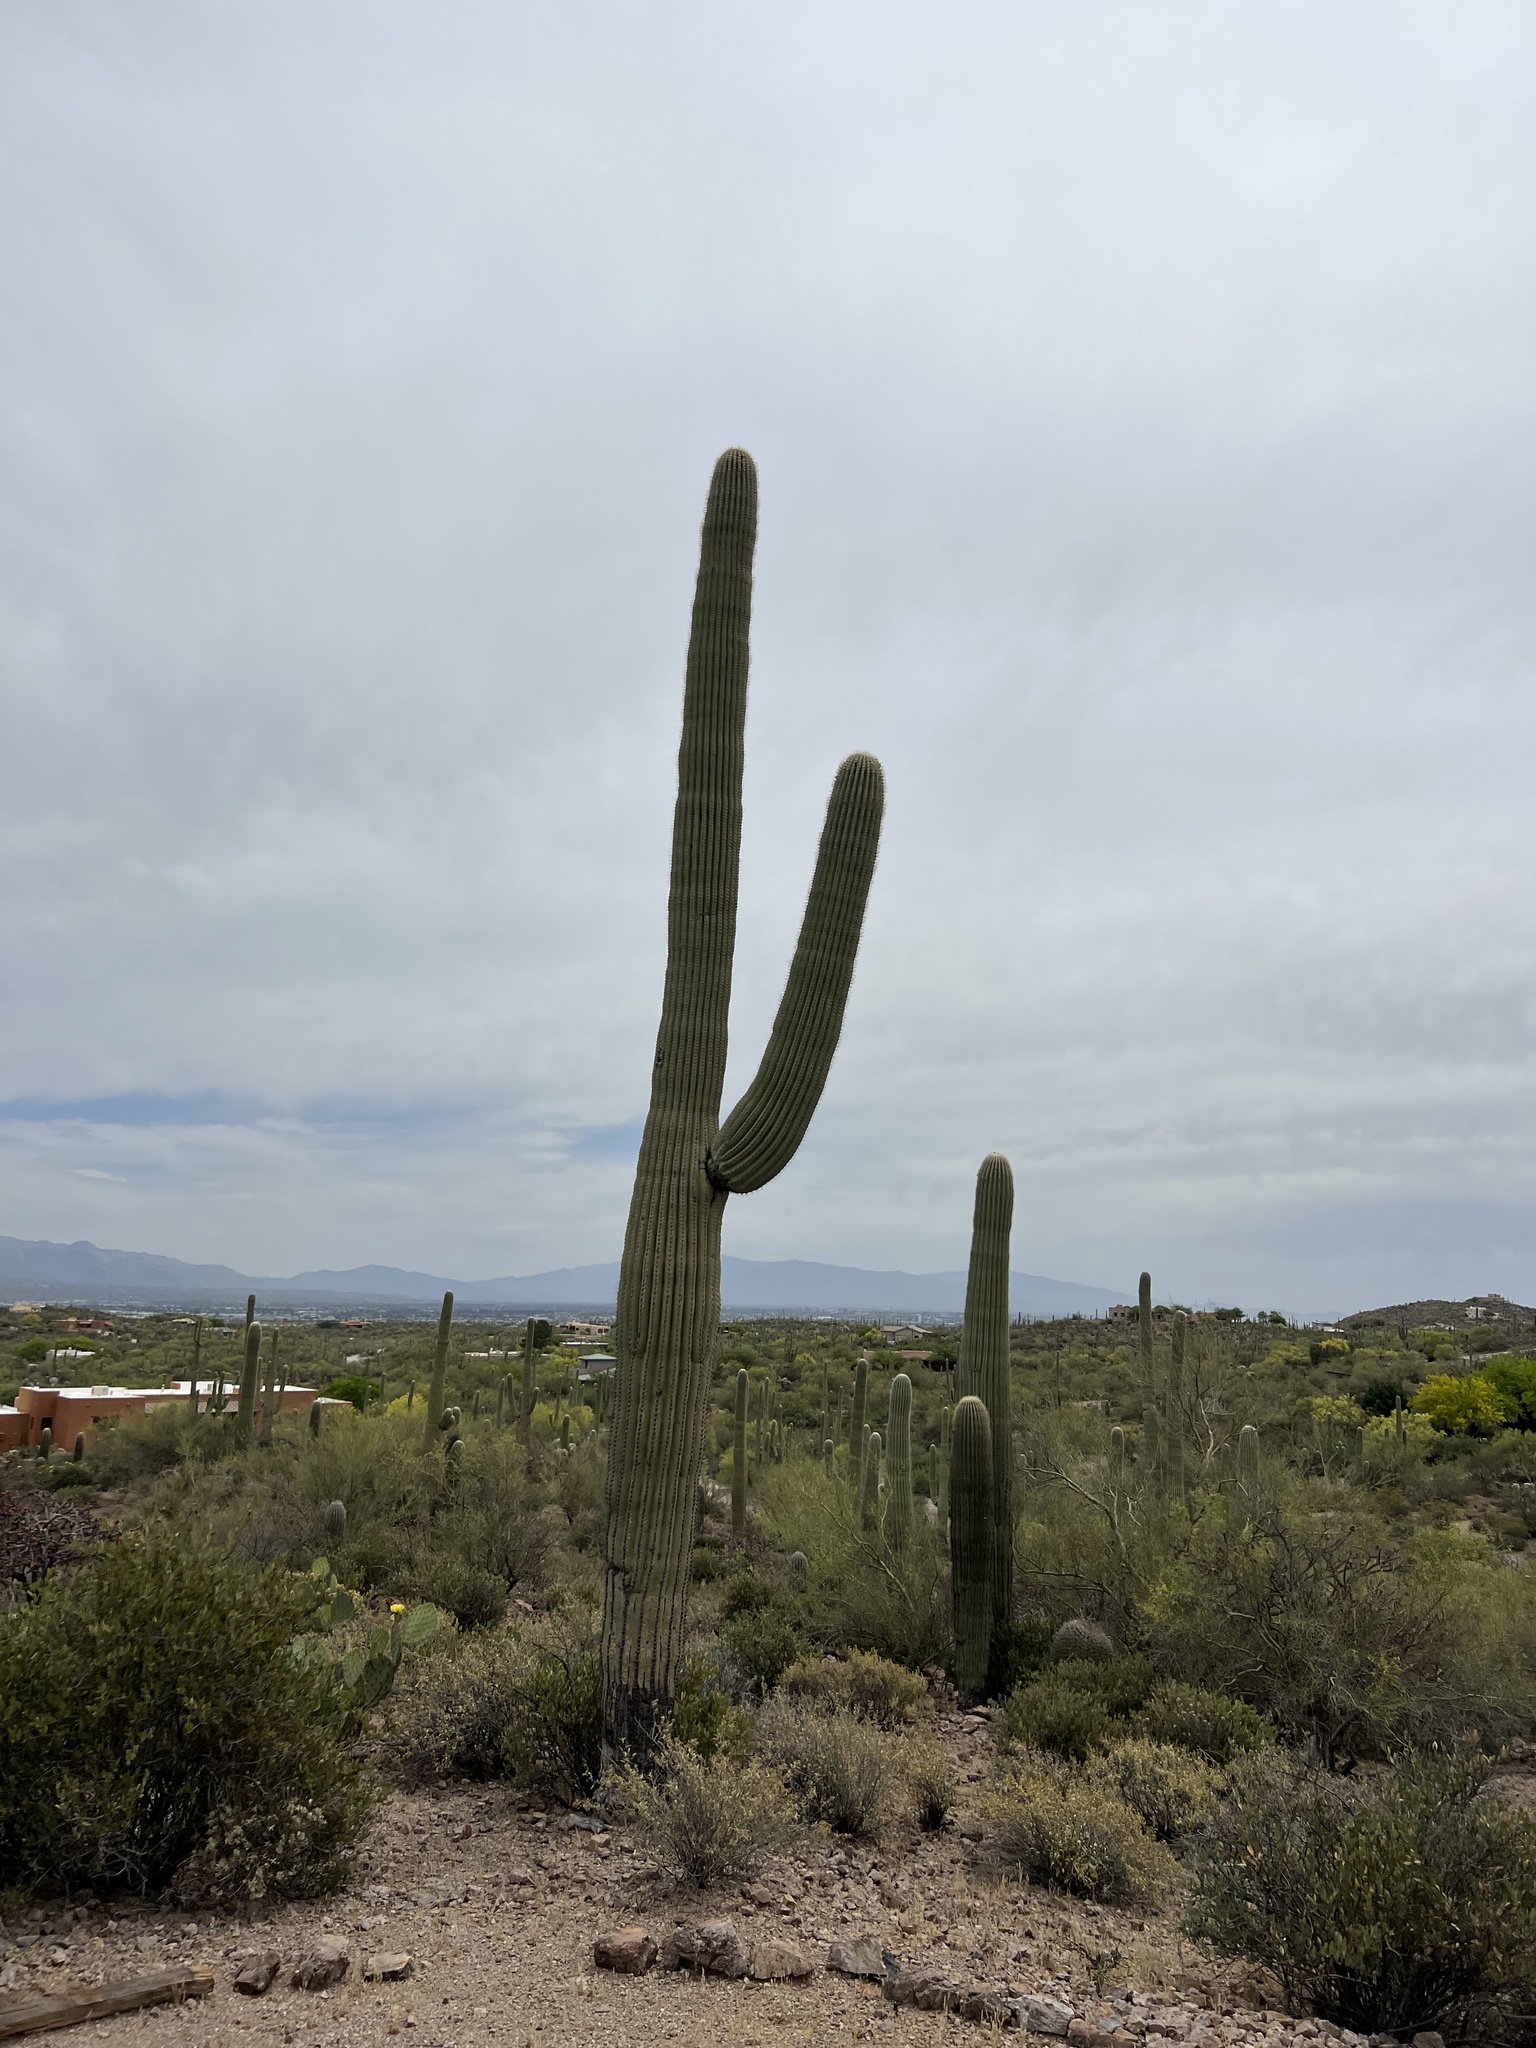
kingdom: Plantae
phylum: Tracheophyta
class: Magnoliopsida
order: Caryophyllales
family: Cactaceae
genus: Carnegiea
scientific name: Carnegiea gigantea
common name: Saguaro
